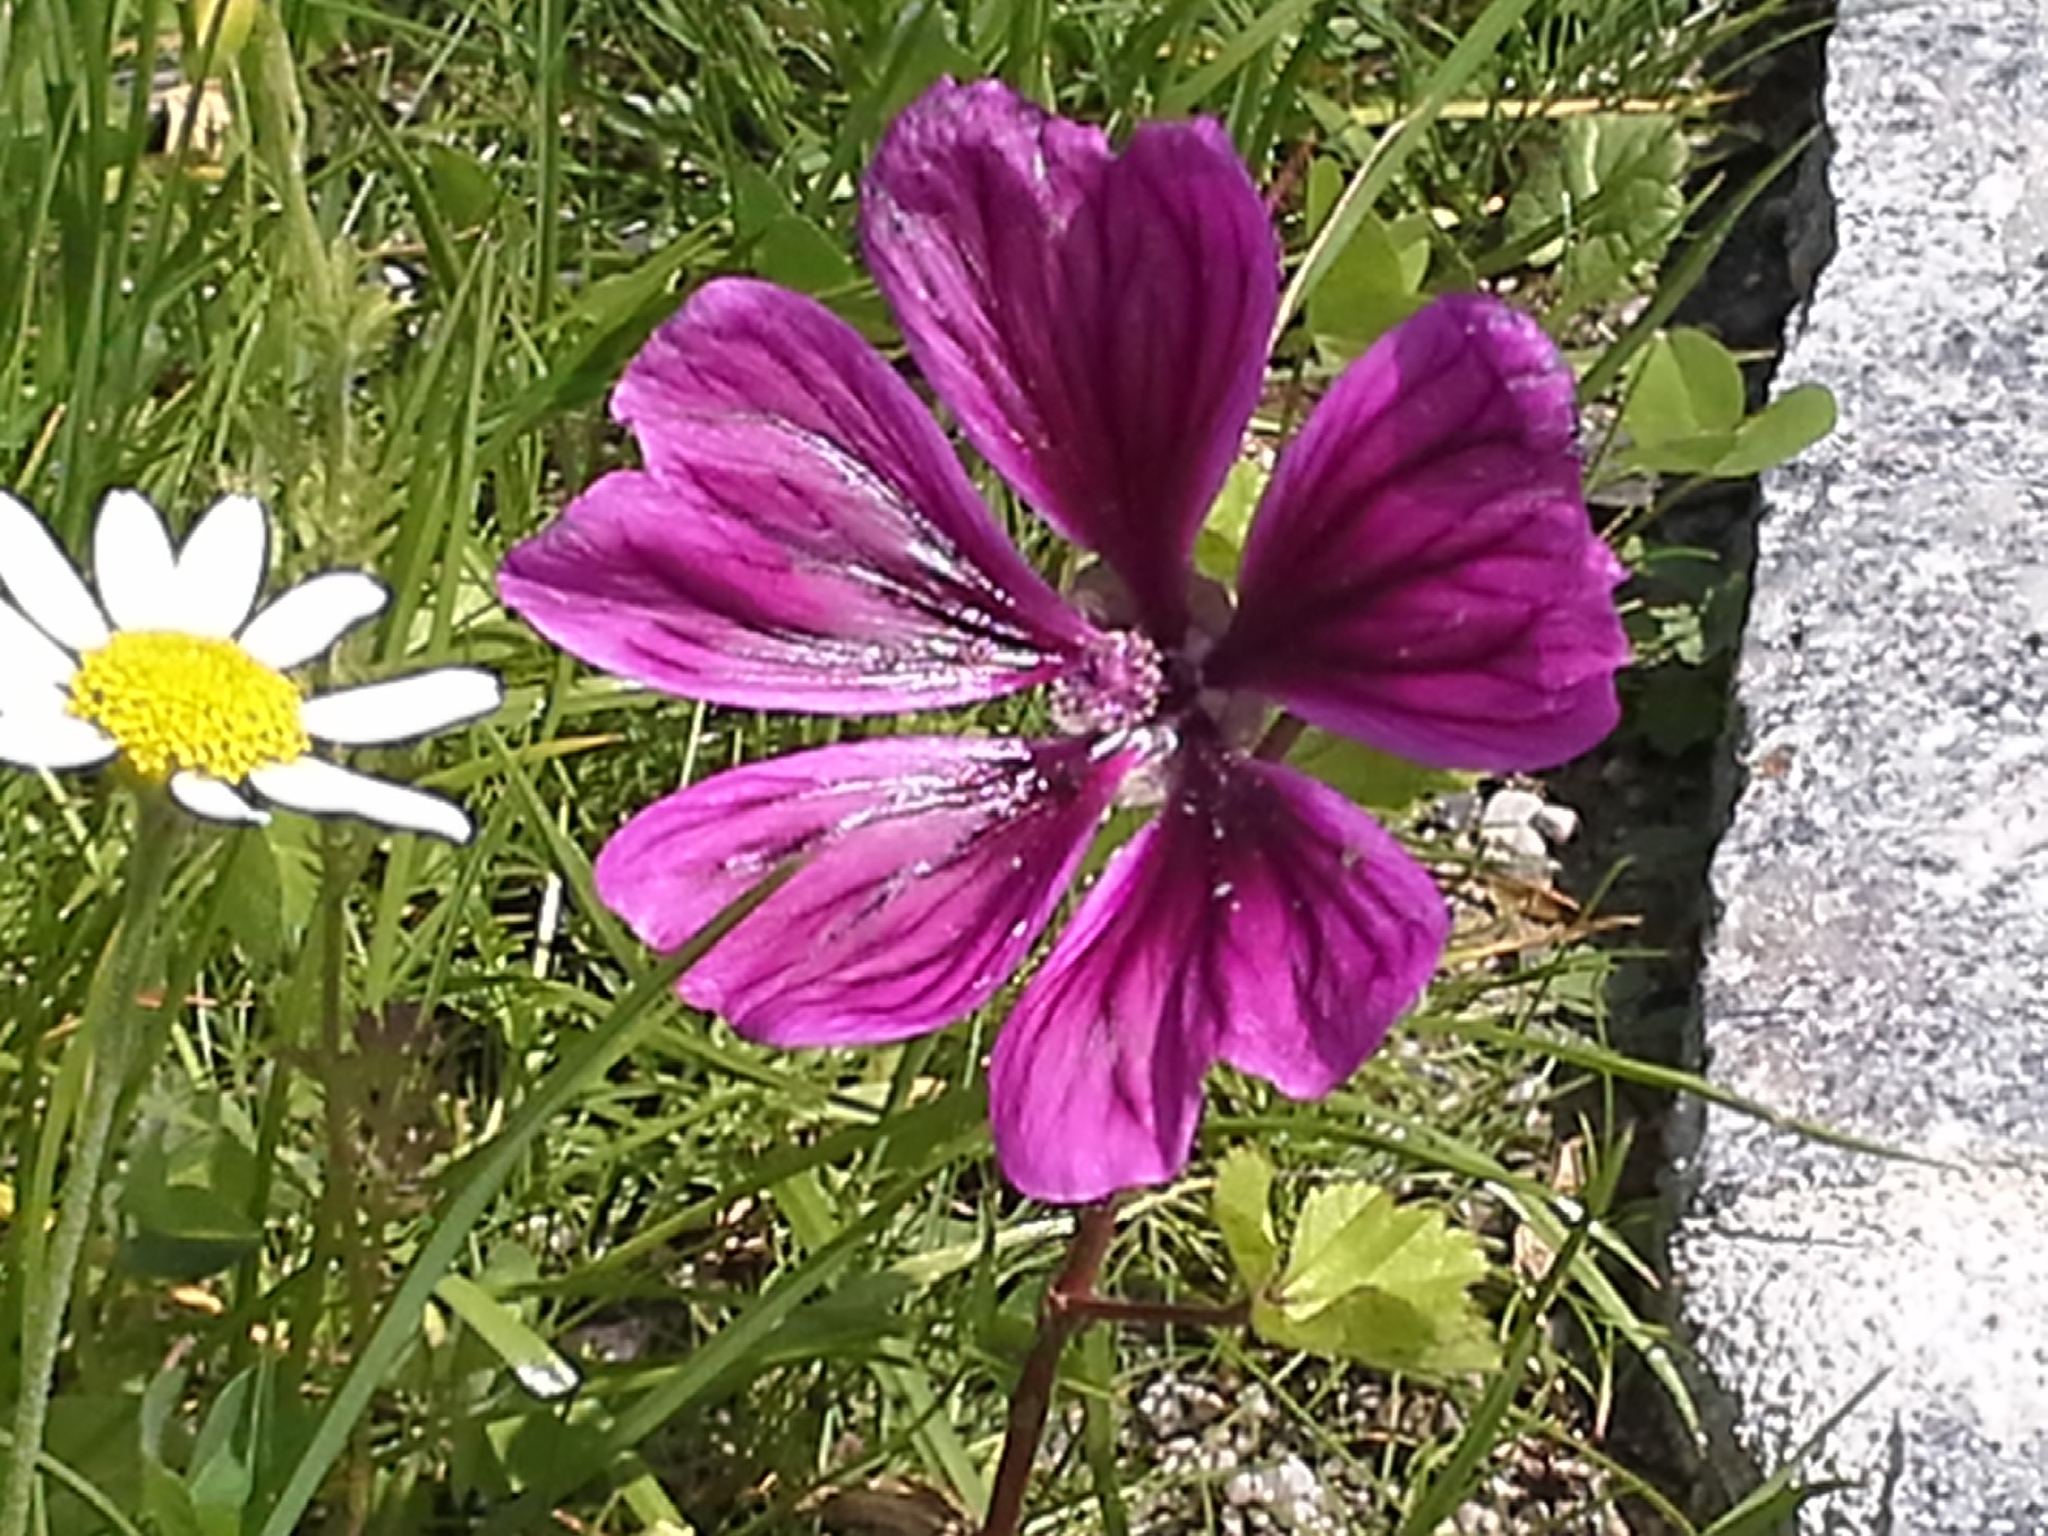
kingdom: Plantae
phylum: Tracheophyta
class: Magnoliopsida
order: Malvales
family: Malvaceae
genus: Malva
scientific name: Malva sylvestris
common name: Common mallow
